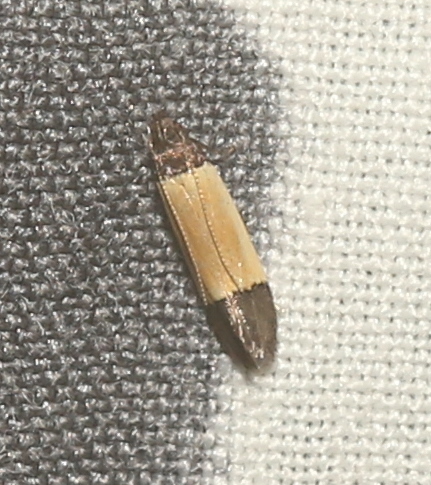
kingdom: Animalia
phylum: Arthropoda
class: Insecta
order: Lepidoptera
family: Gelechiidae
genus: Anacampsis
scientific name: Anacampsis coverdalella
